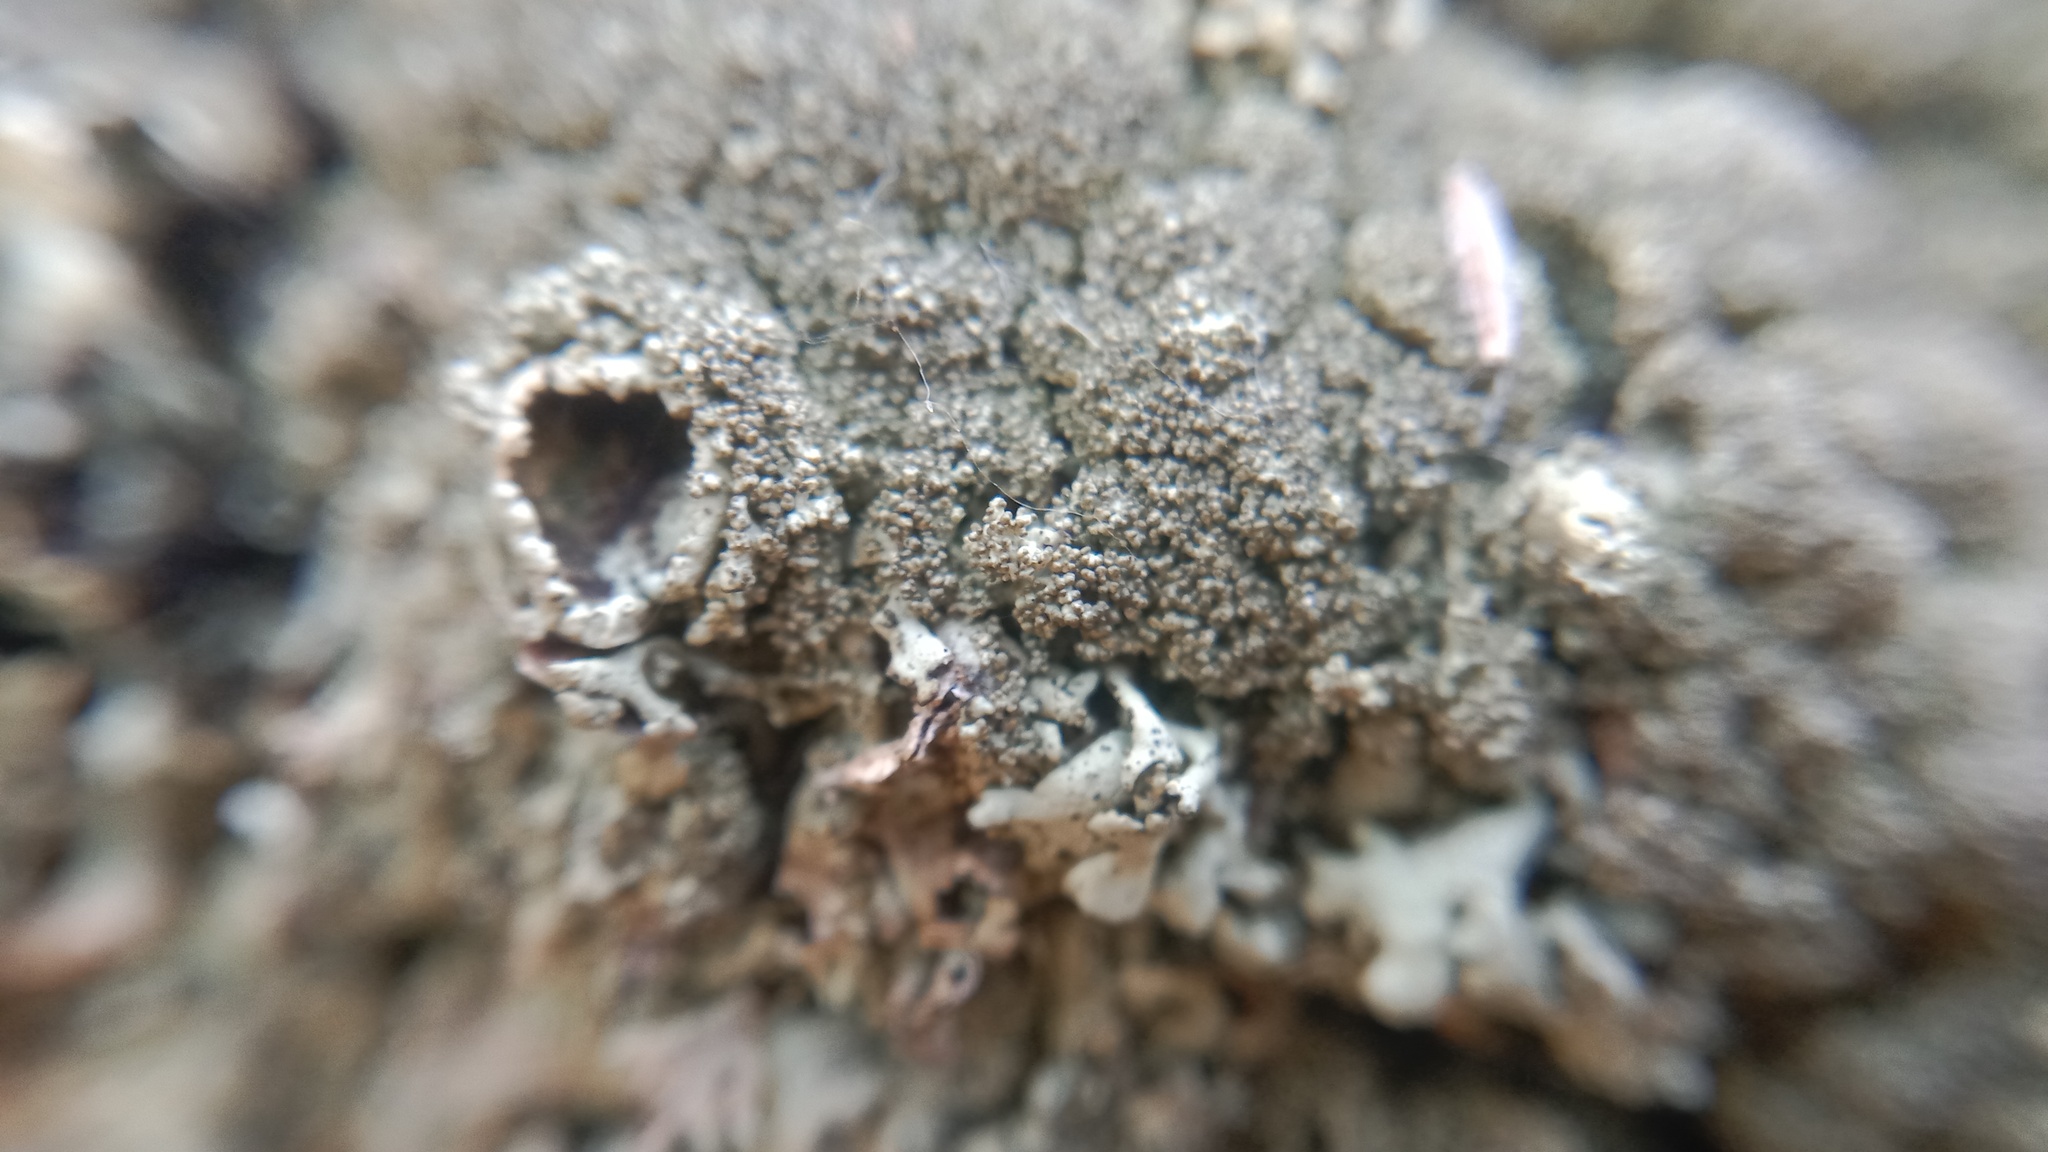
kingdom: Fungi
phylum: Ascomycota
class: Lecanoromycetes
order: Lecanorales
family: Parmeliaceae
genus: Xanthoparmelia
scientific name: Xanthoparmelia conspersa
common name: Peppered rock shield
